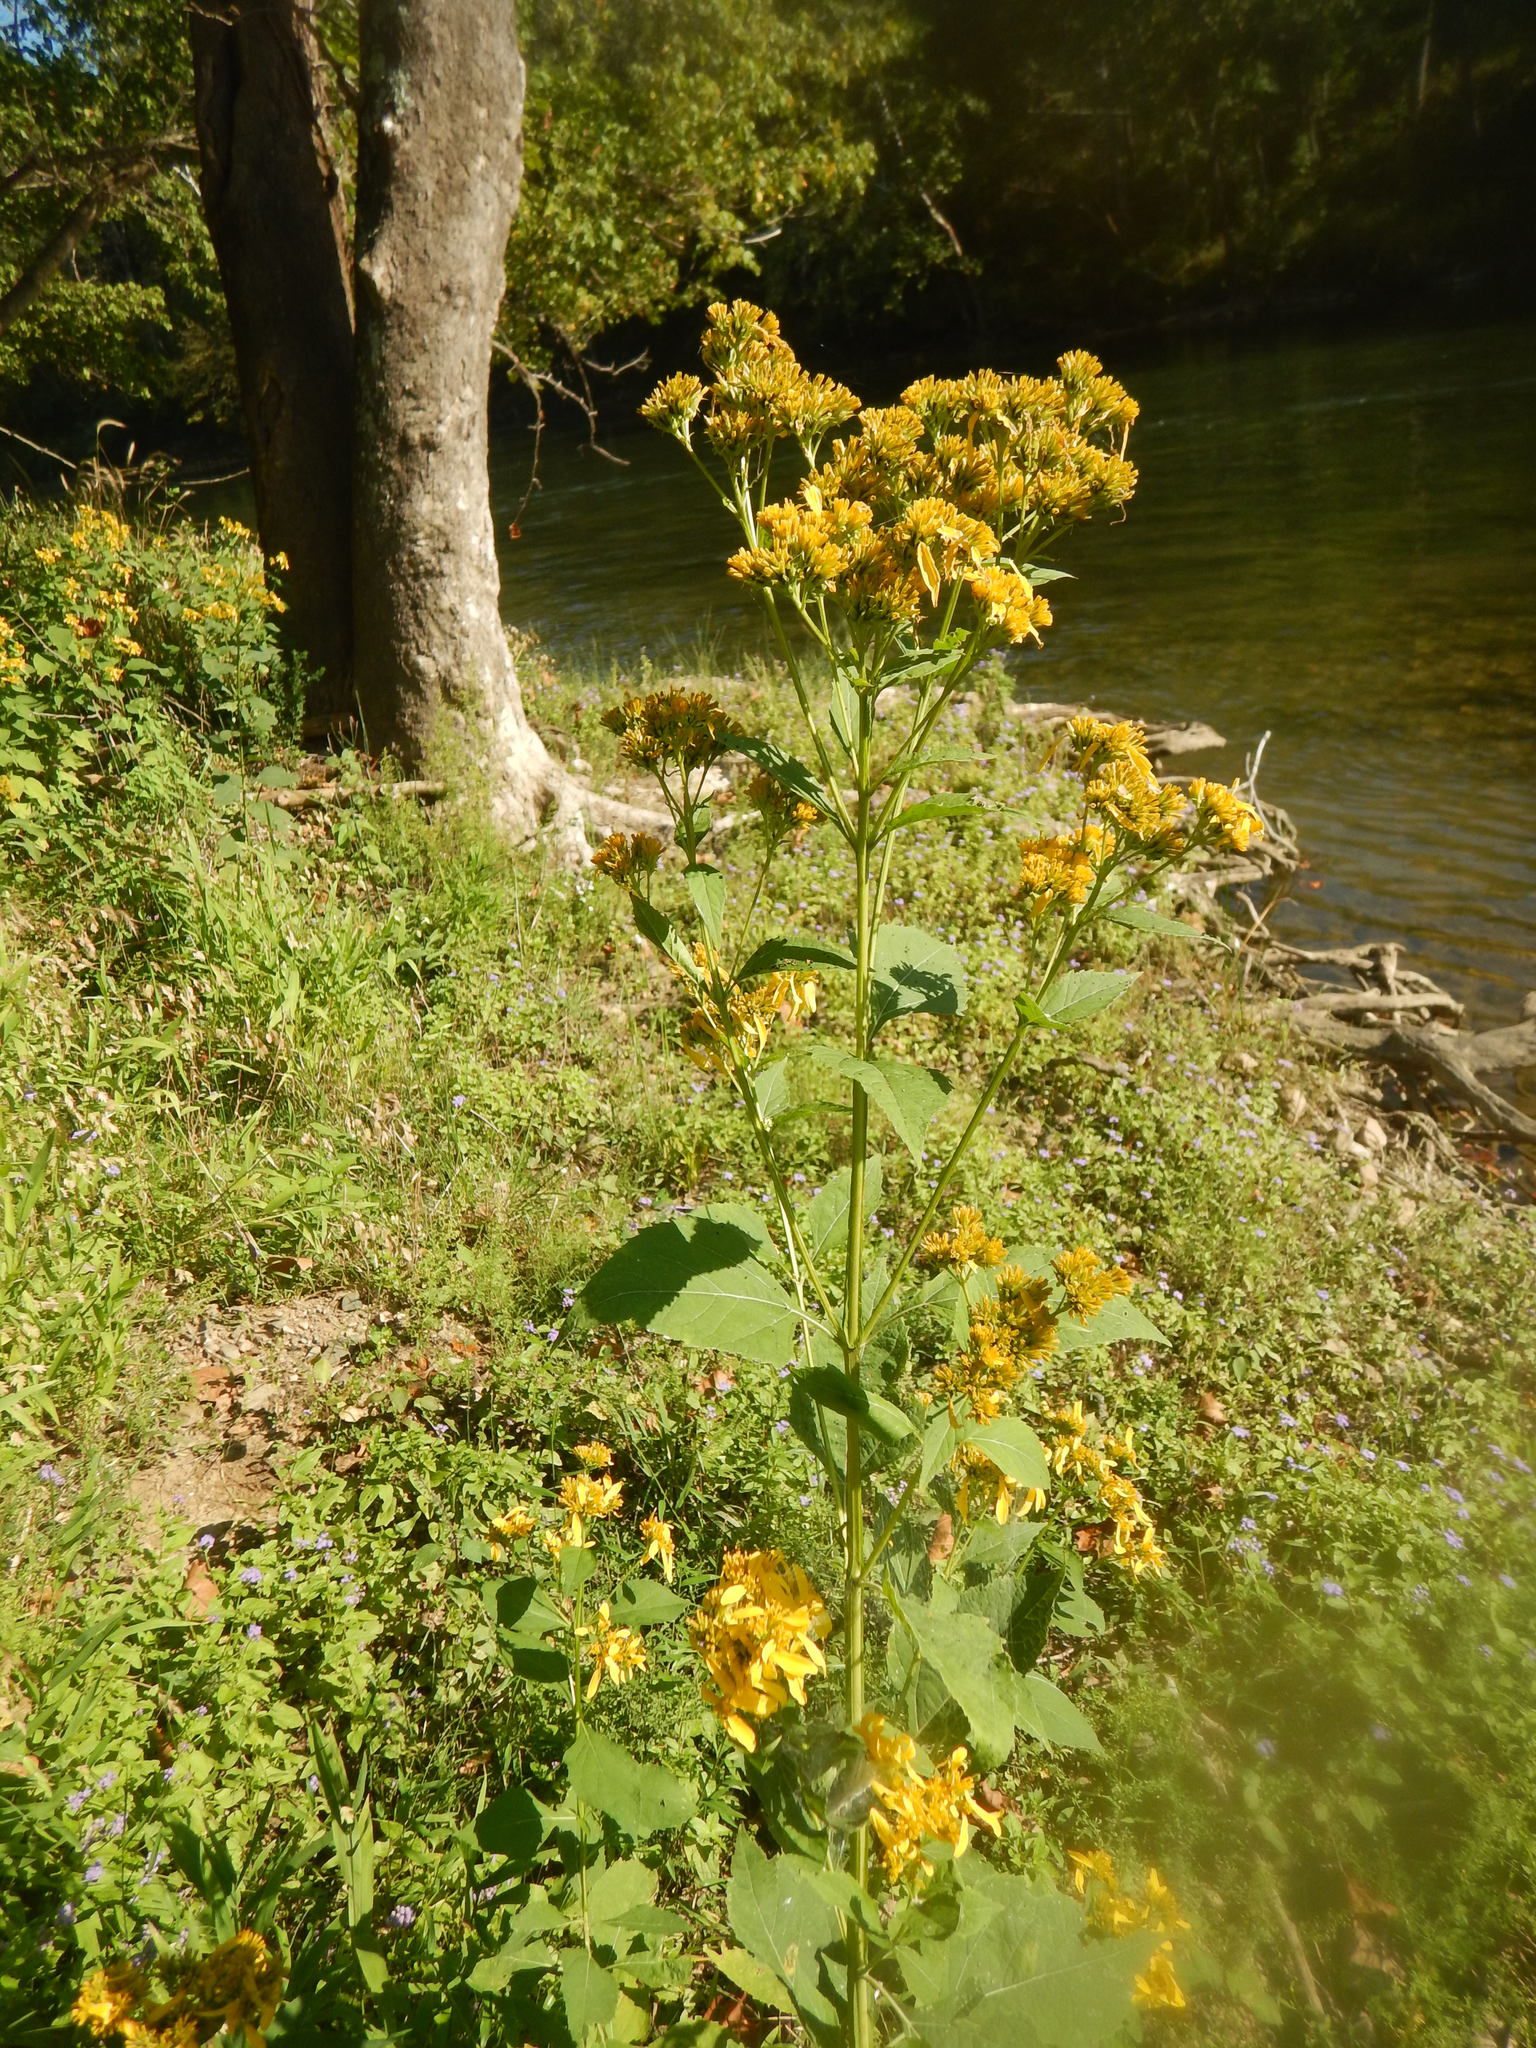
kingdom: Plantae
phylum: Tracheophyta
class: Magnoliopsida
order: Asterales
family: Asteraceae
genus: Verbesina
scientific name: Verbesina occidentalis
